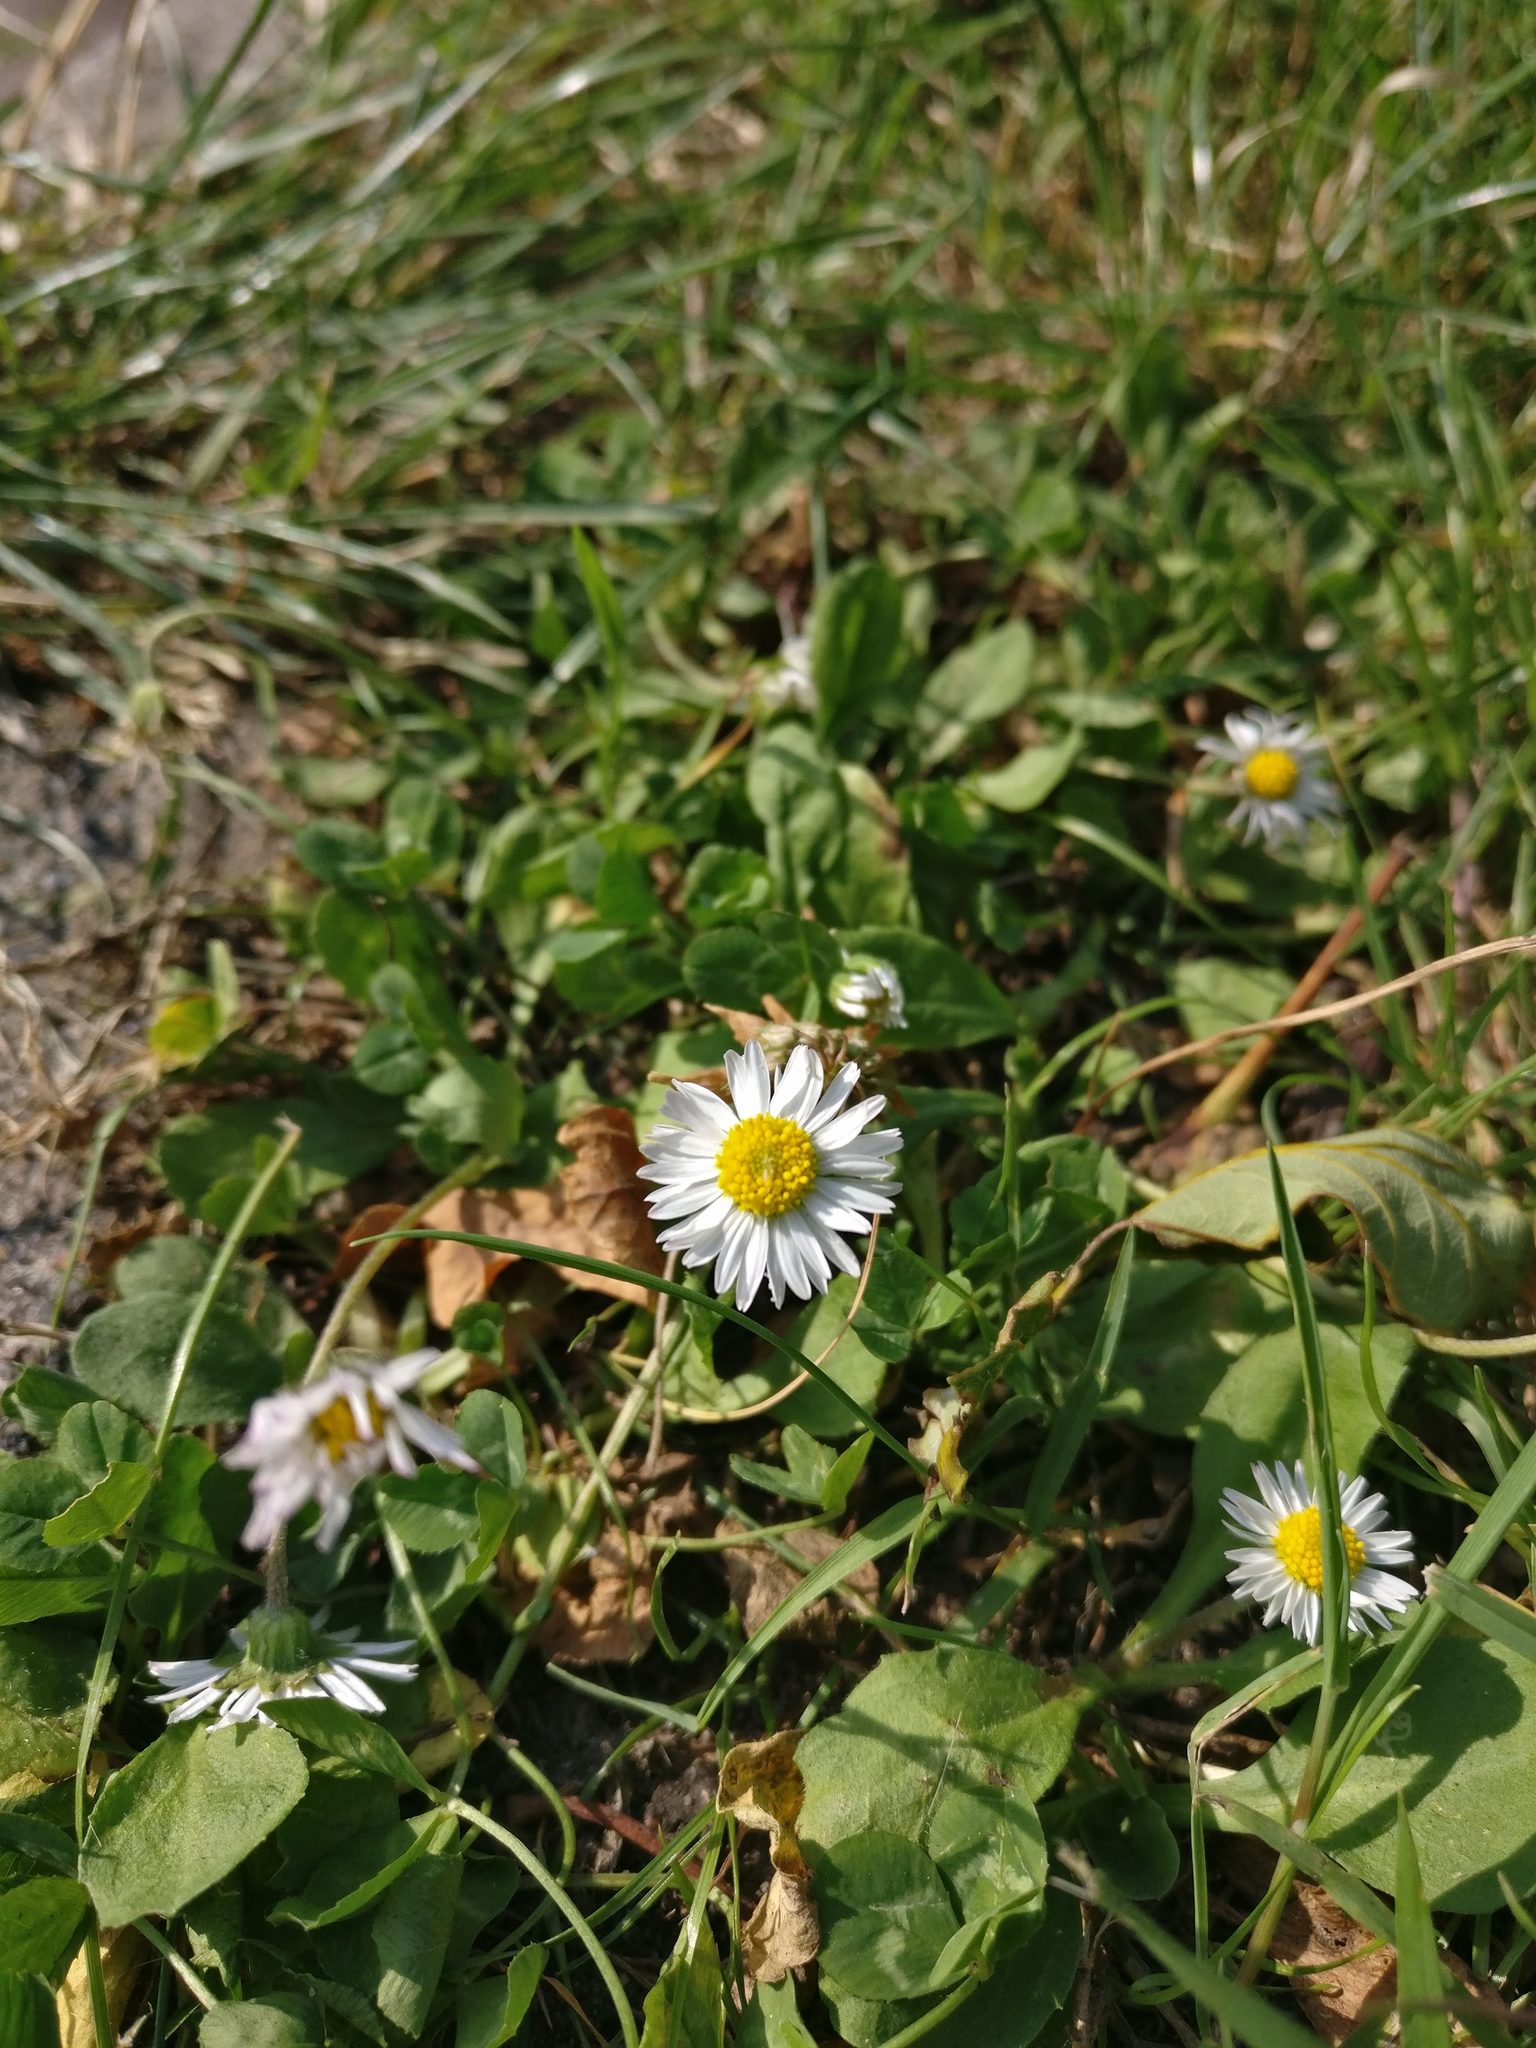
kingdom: Plantae
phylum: Tracheophyta
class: Magnoliopsida
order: Asterales
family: Asteraceae
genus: Bellis
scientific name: Bellis perennis
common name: Lawndaisy
